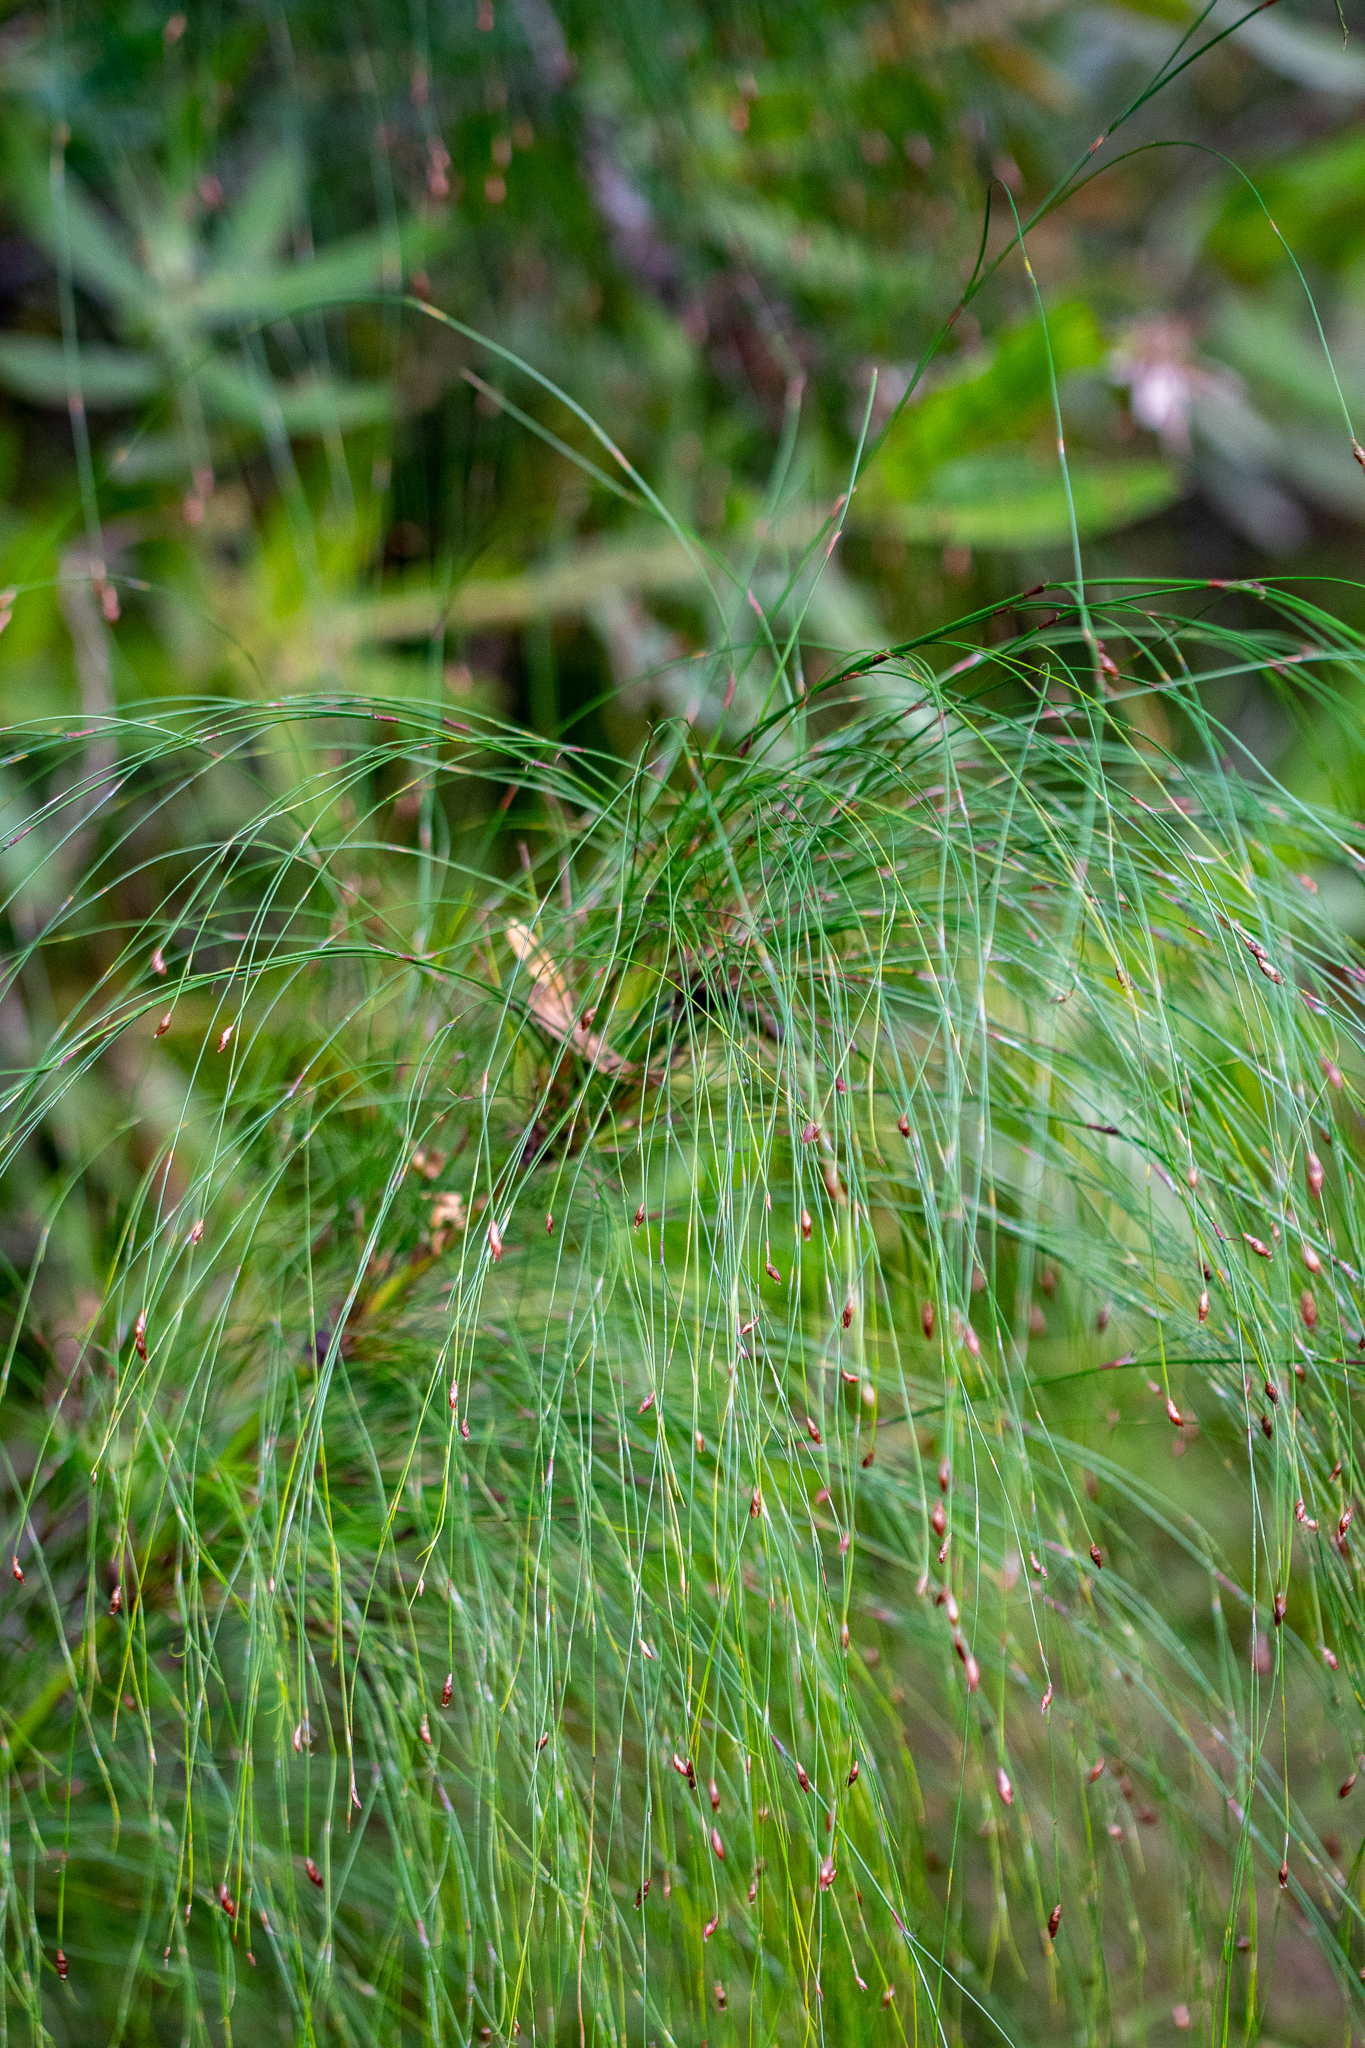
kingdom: Plantae
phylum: Tracheophyta
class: Liliopsida
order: Poales
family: Restionaceae
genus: Restio
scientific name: Restio subverticillatus
